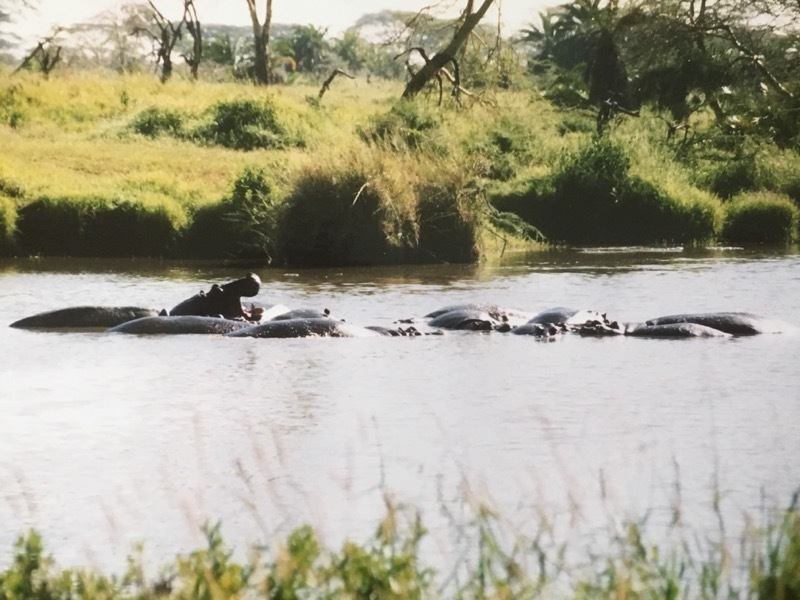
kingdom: Animalia
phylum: Chordata
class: Mammalia
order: Artiodactyla
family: Hippopotamidae
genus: Hippopotamus
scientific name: Hippopotamus amphibius
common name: Common hippopotamus
